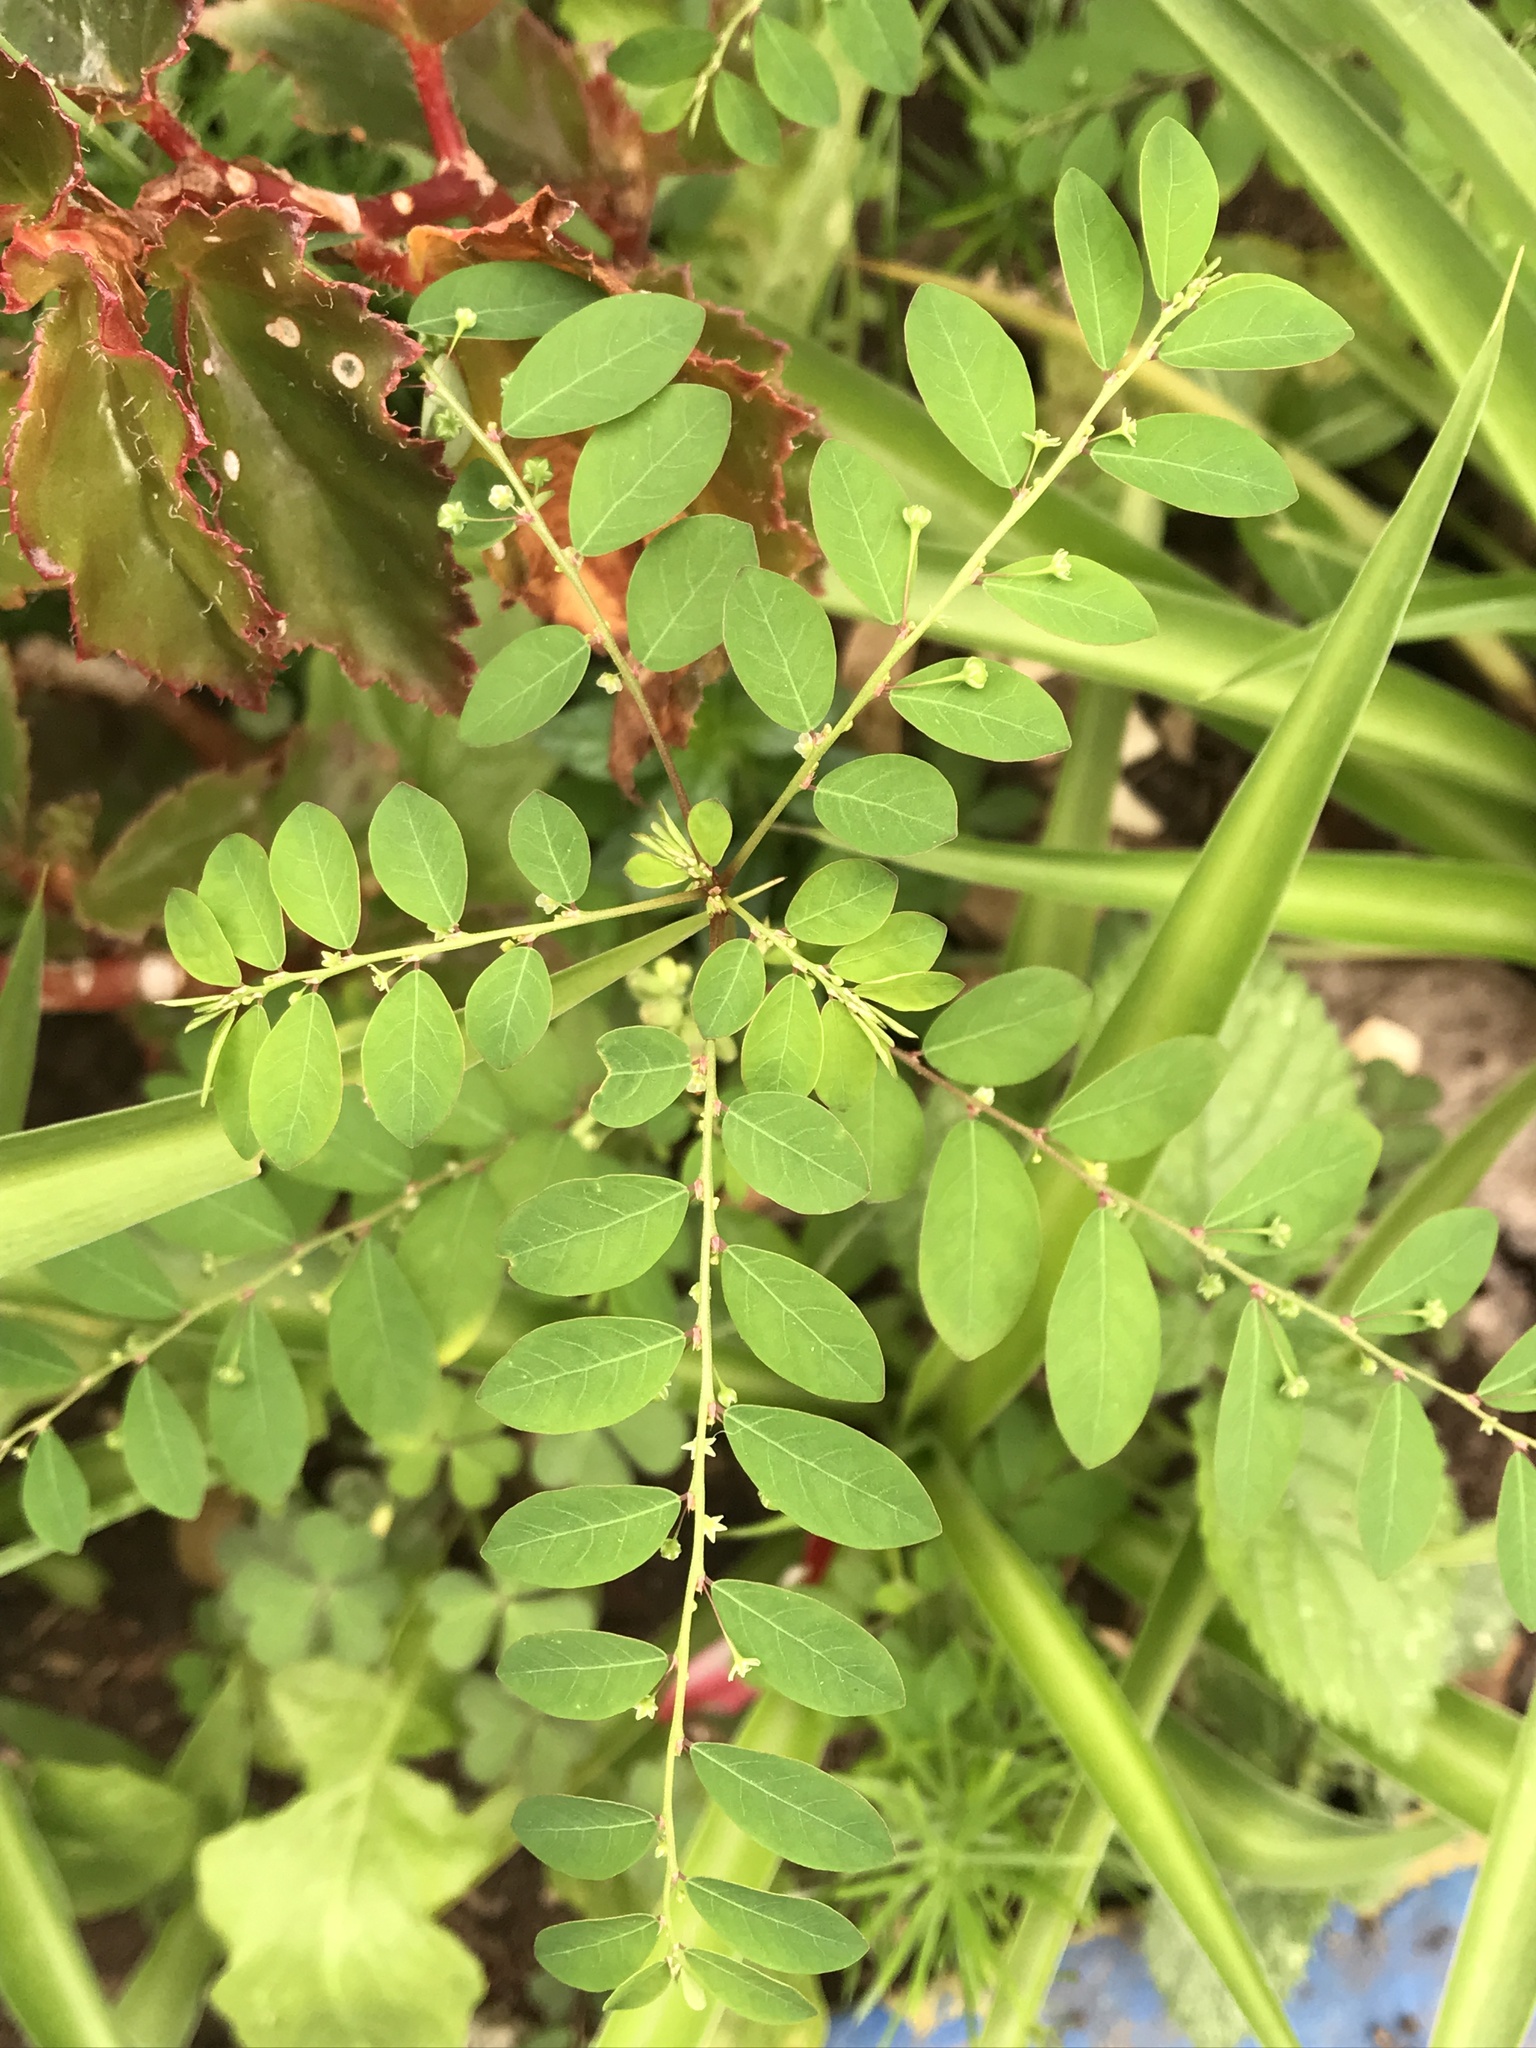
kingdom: Plantae
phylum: Tracheophyta
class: Magnoliopsida
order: Malpighiales
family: Phyllanthaceae
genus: Phyllanthus
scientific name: Phyllanthus tenellus
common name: Mascarene island leaf-flower
